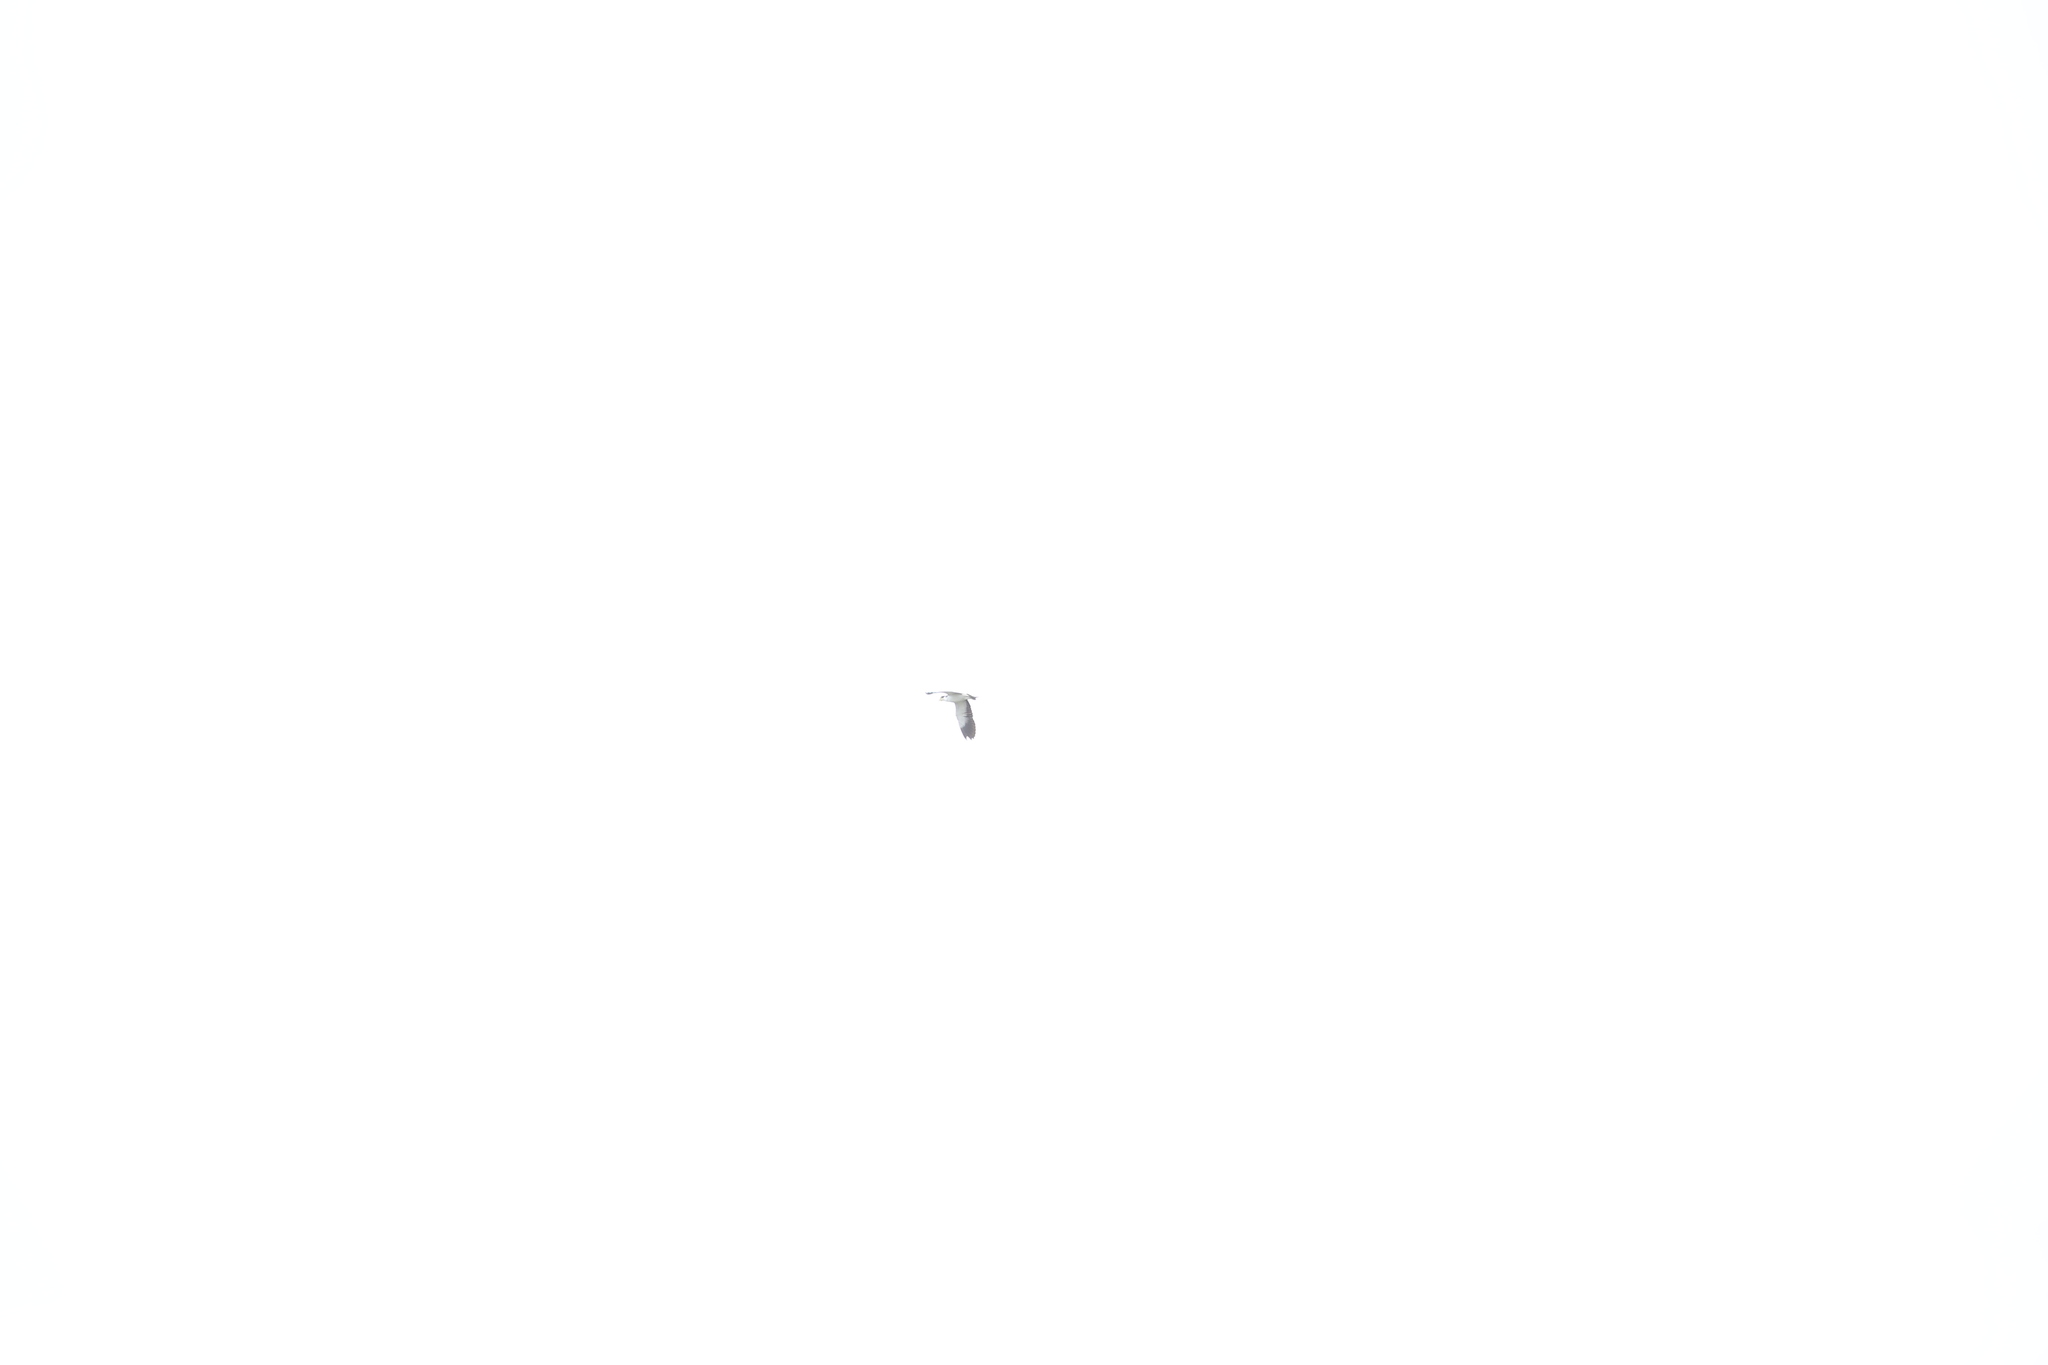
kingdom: Animalia
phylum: Chordata
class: Aves
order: Charadriiformes
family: Charadriidae
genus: Vanellus
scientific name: Vanellus miles
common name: Masked lapwing
